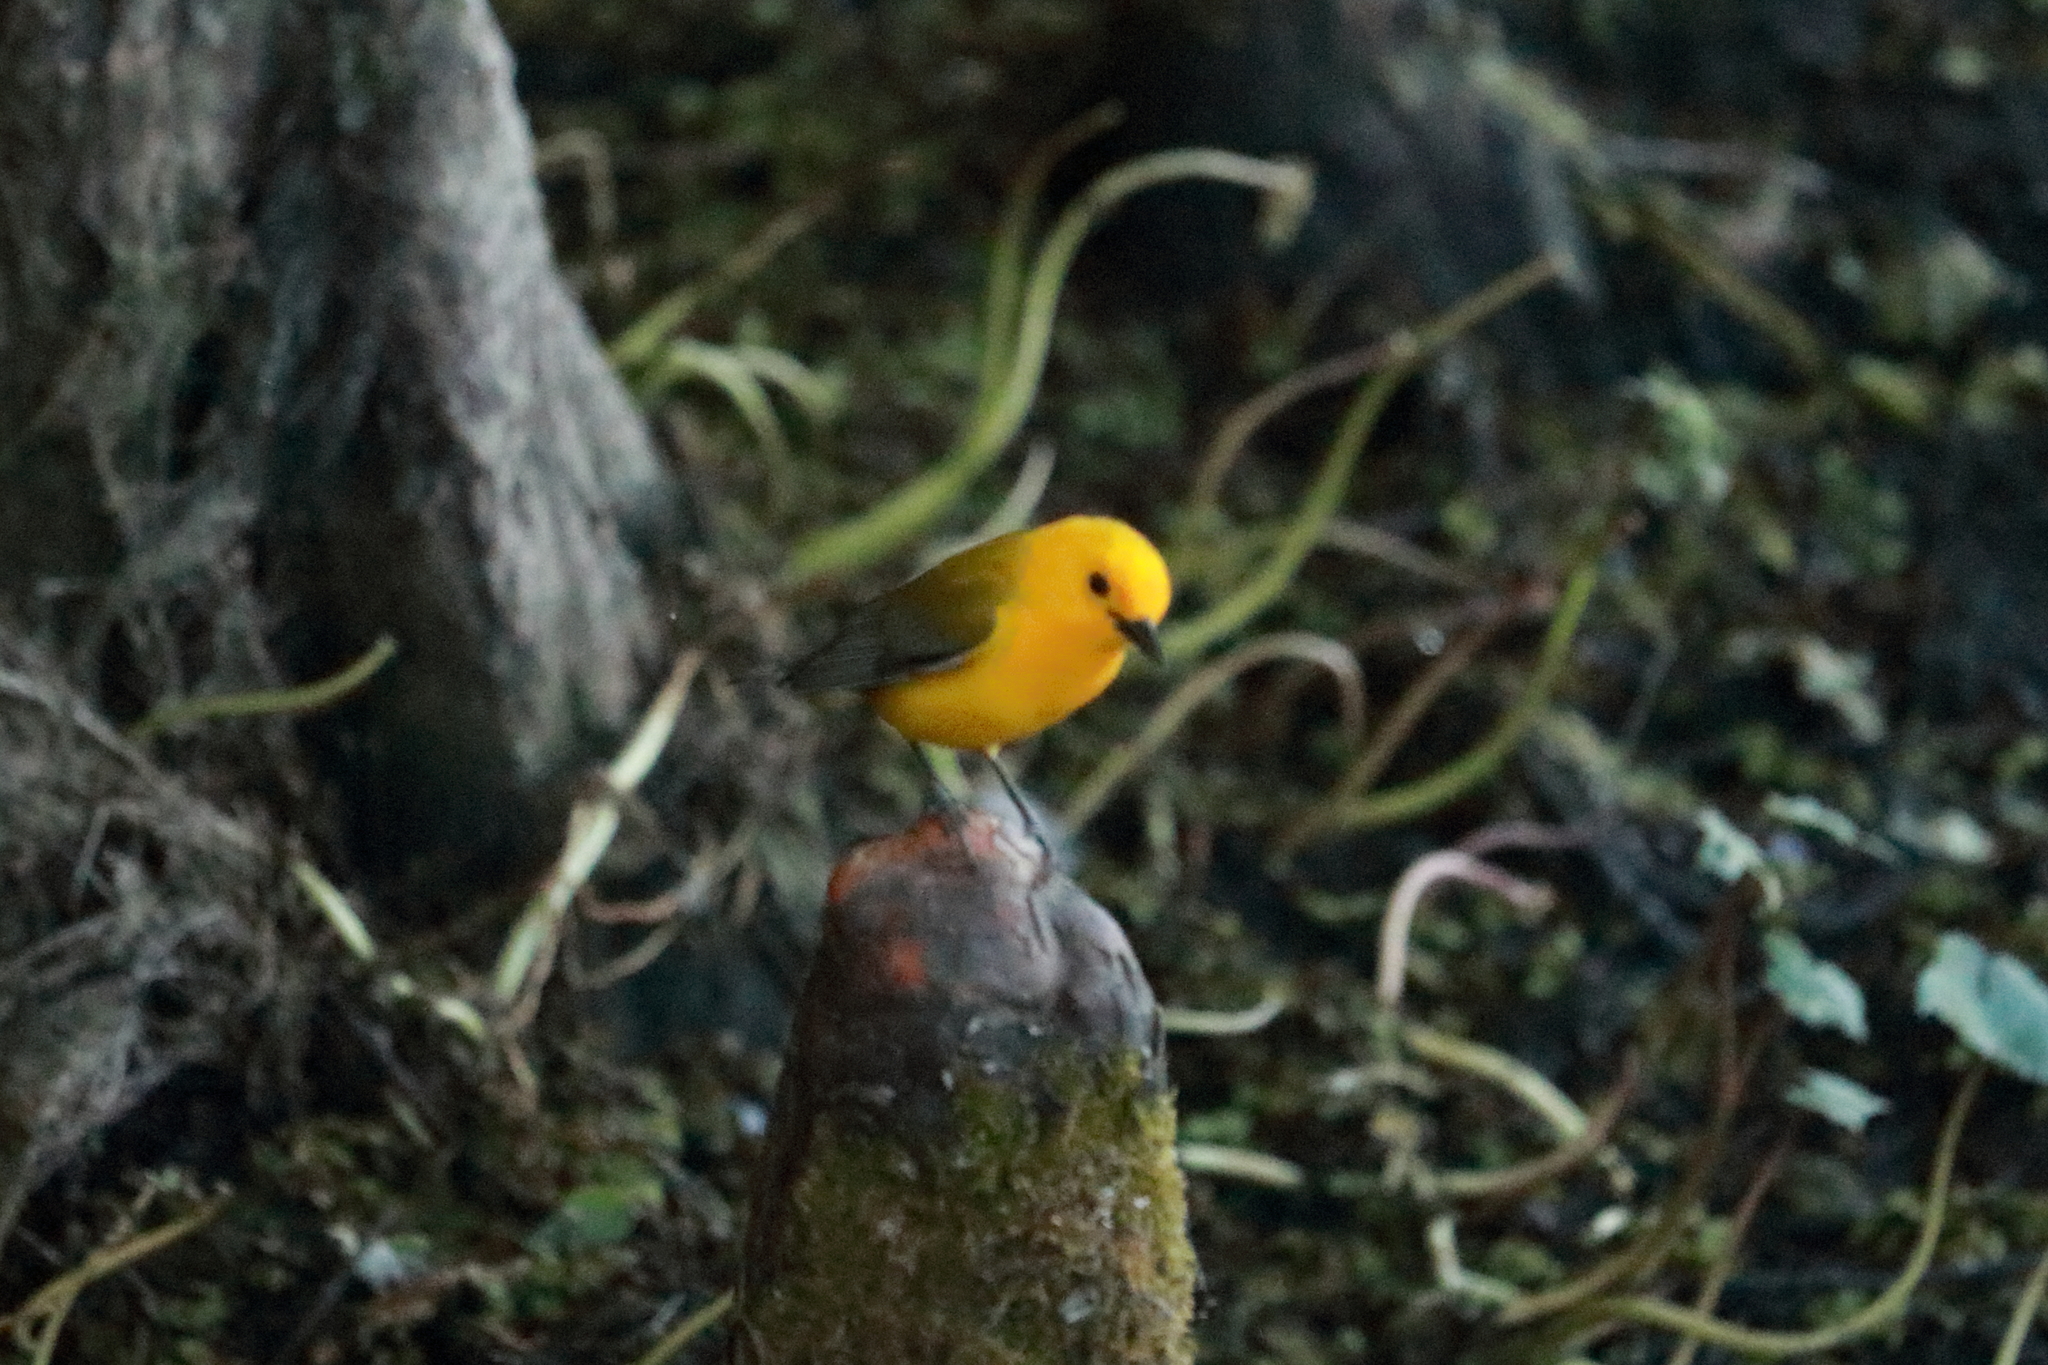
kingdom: Animalia
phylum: Chordata
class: Aves
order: Passeriformes
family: Parulidae
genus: Protonotaria
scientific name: Protonotaria citrea
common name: Prothonotary warbler
